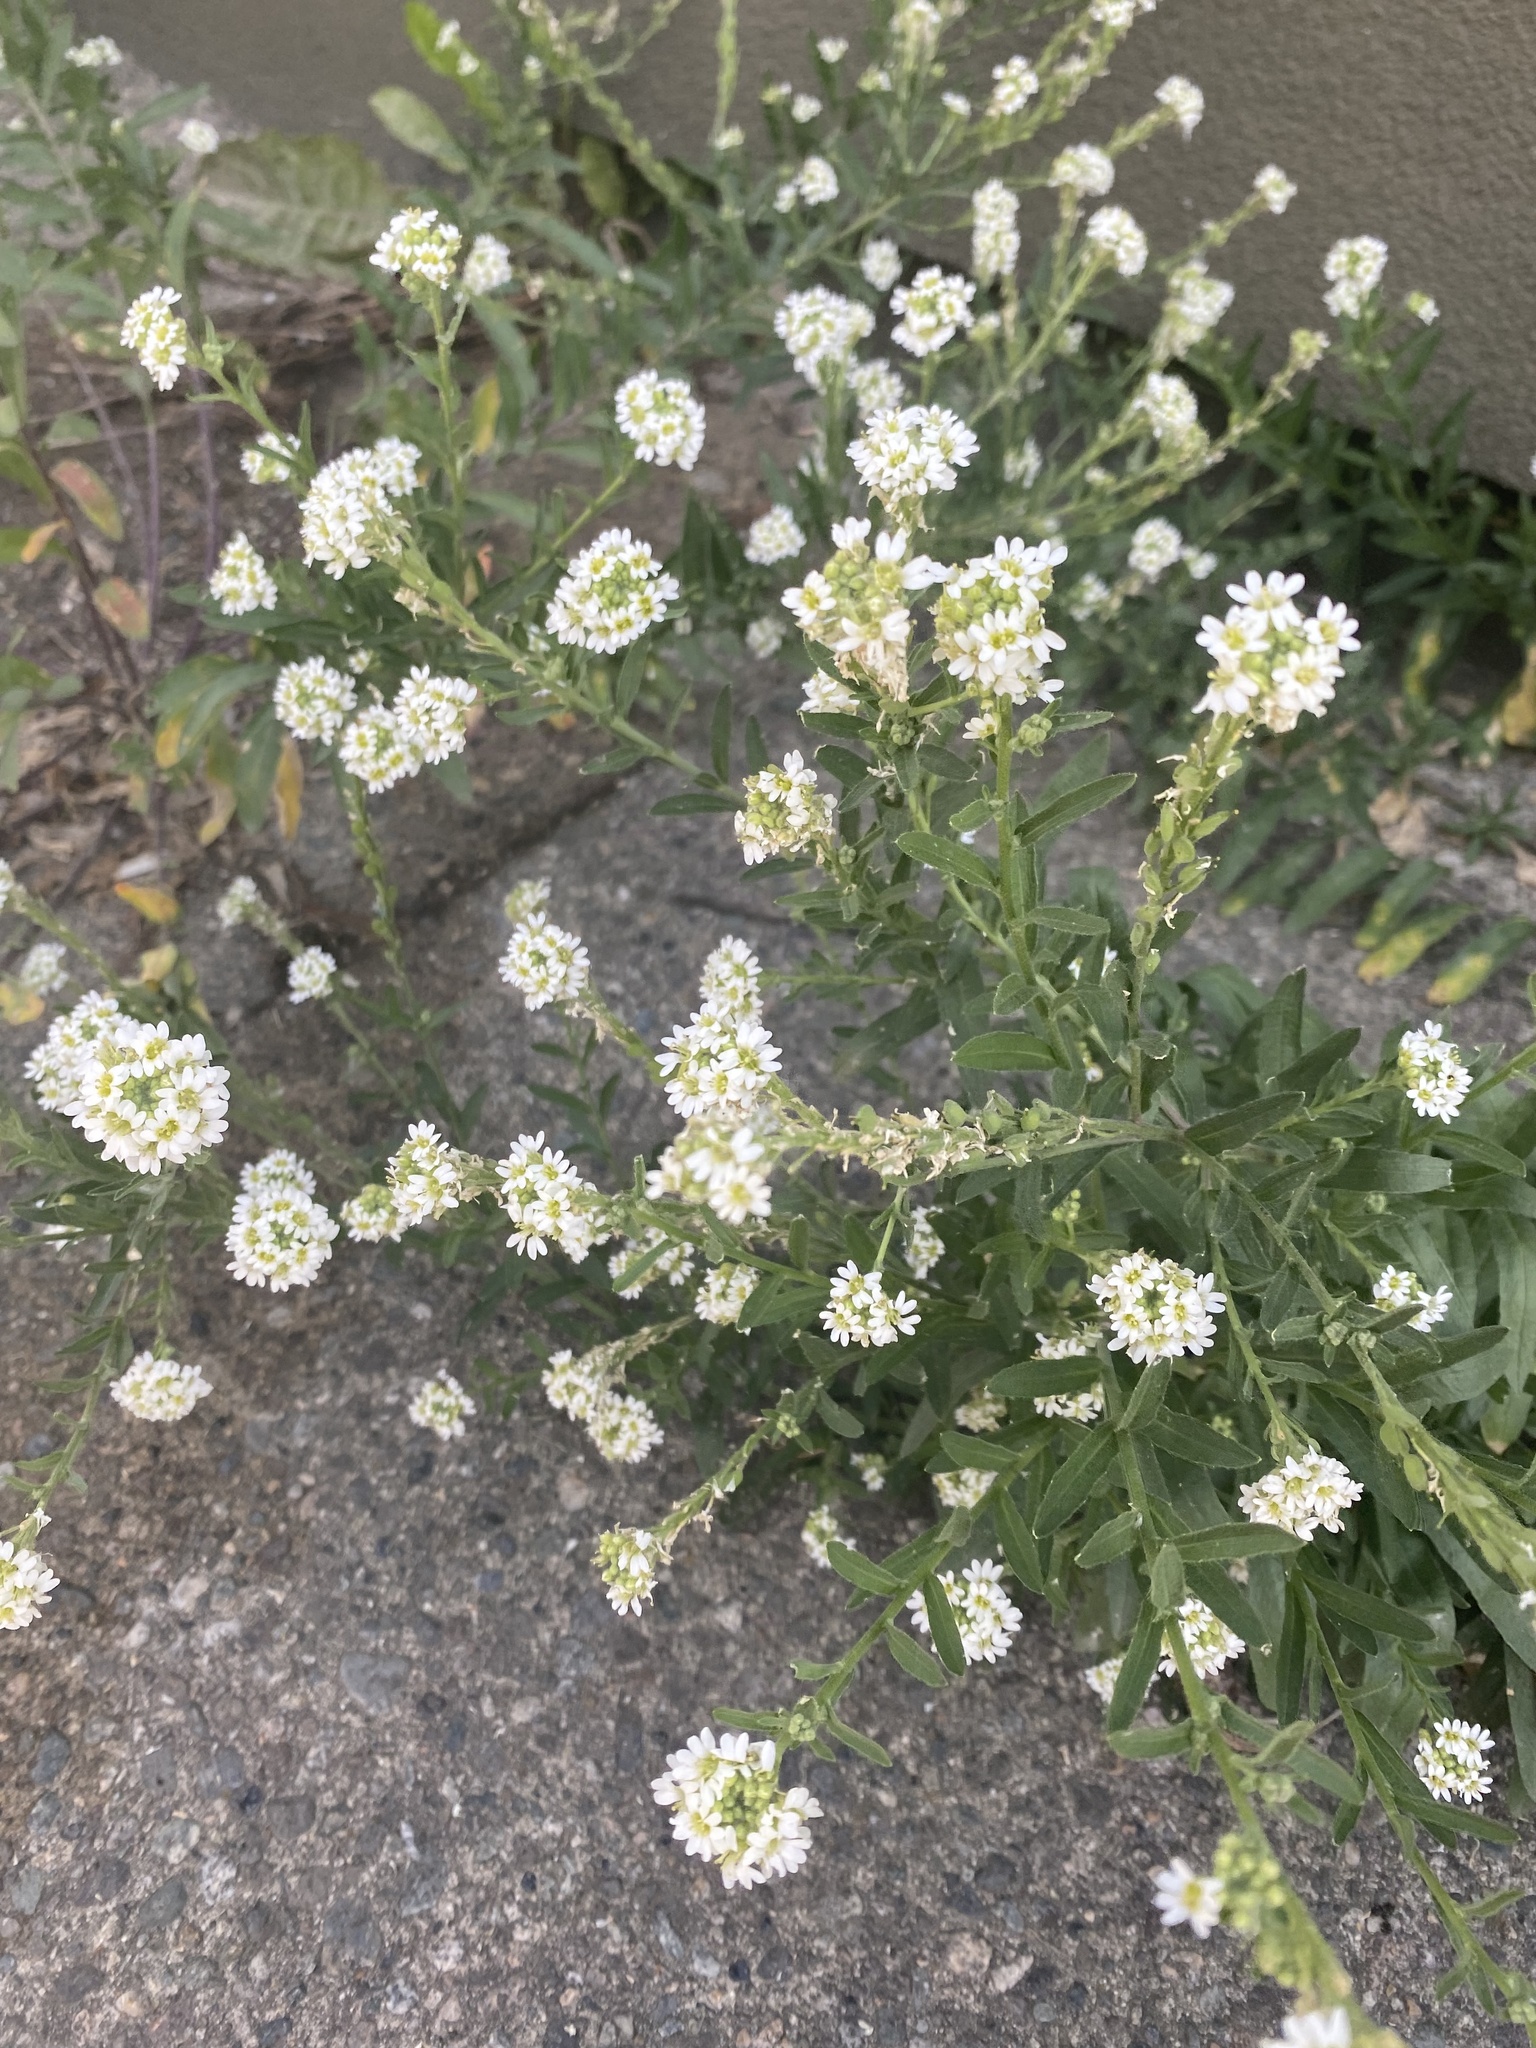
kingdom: Plantae
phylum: Tracheophyta
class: Magnoliopsida
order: Brassicales
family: Brassicaceae
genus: Berteroa
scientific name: Berteroa incana
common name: Hoary alison
